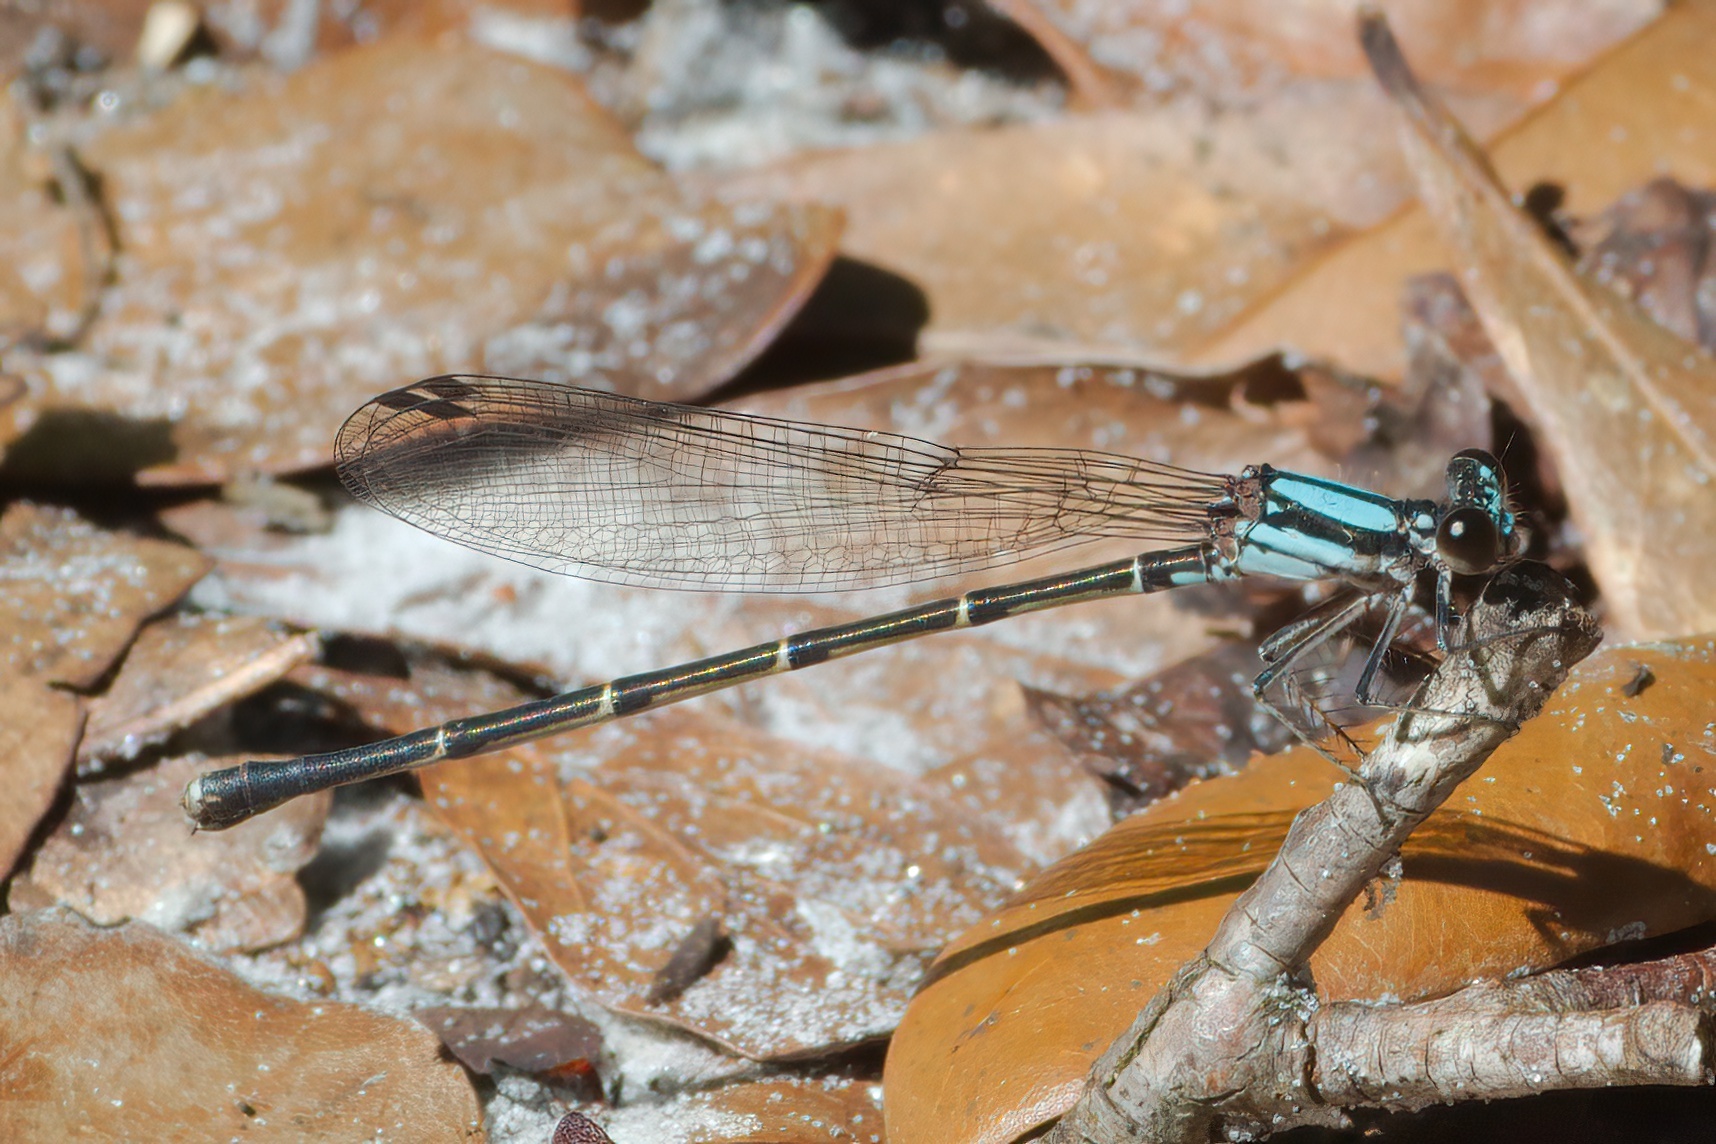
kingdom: Animalia
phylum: Arthropoda
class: Insecta
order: Odonata
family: Coenagrionidae
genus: Argia
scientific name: Argia tibialis
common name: Blue-tipped dancer
